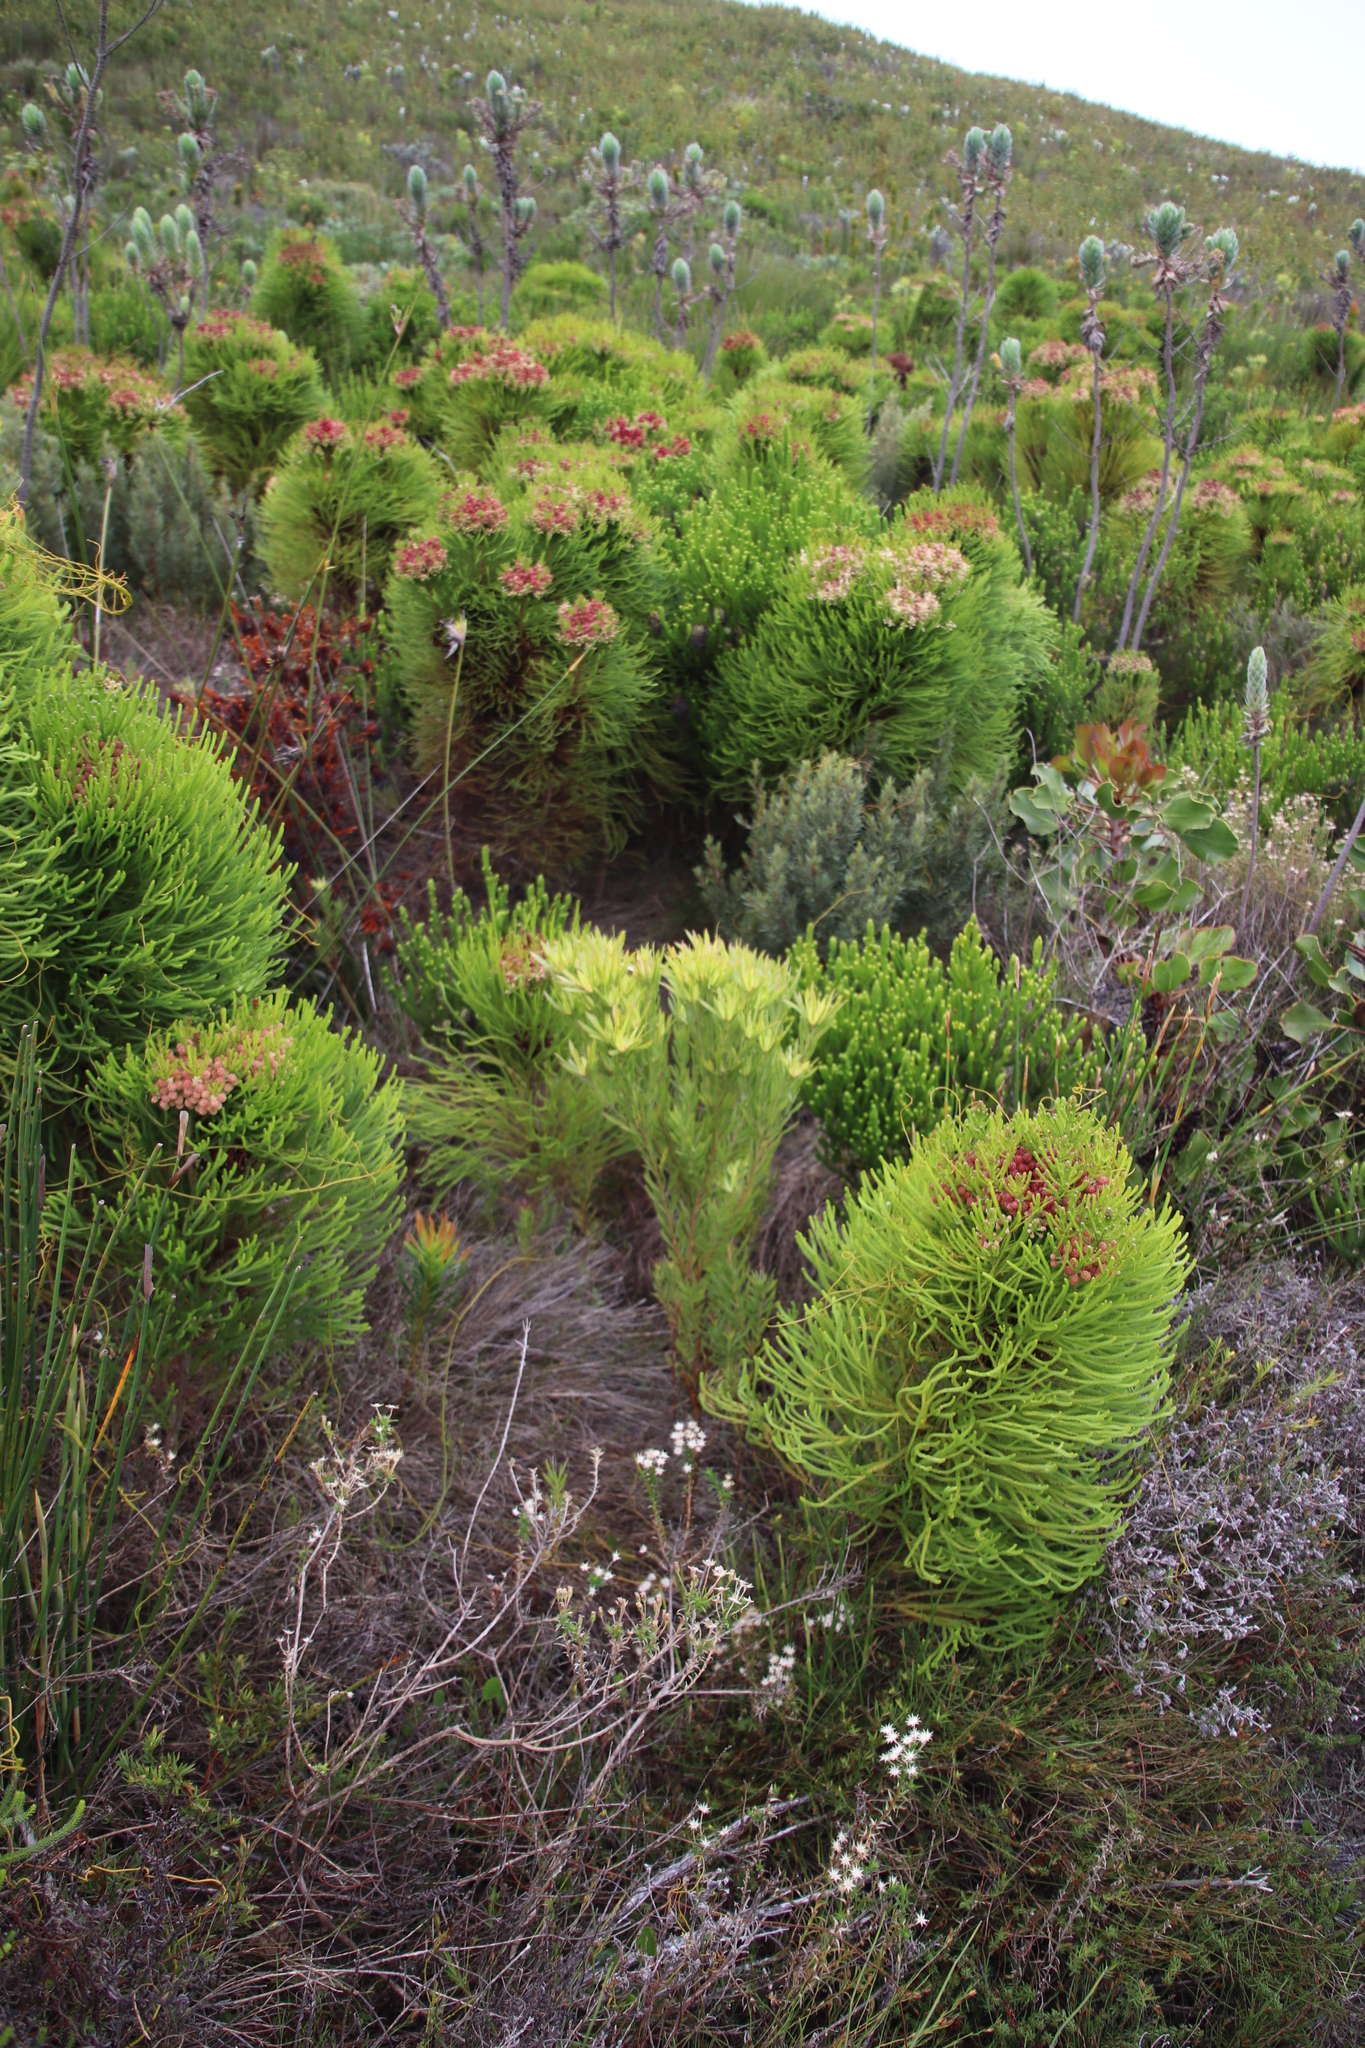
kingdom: Plantae
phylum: Tracheophyta
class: Magnoliopsida
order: Proteales
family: Proteaceae
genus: Leucadendron
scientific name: Leucadendron xanthoconus
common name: Sickle-leaf conebush
